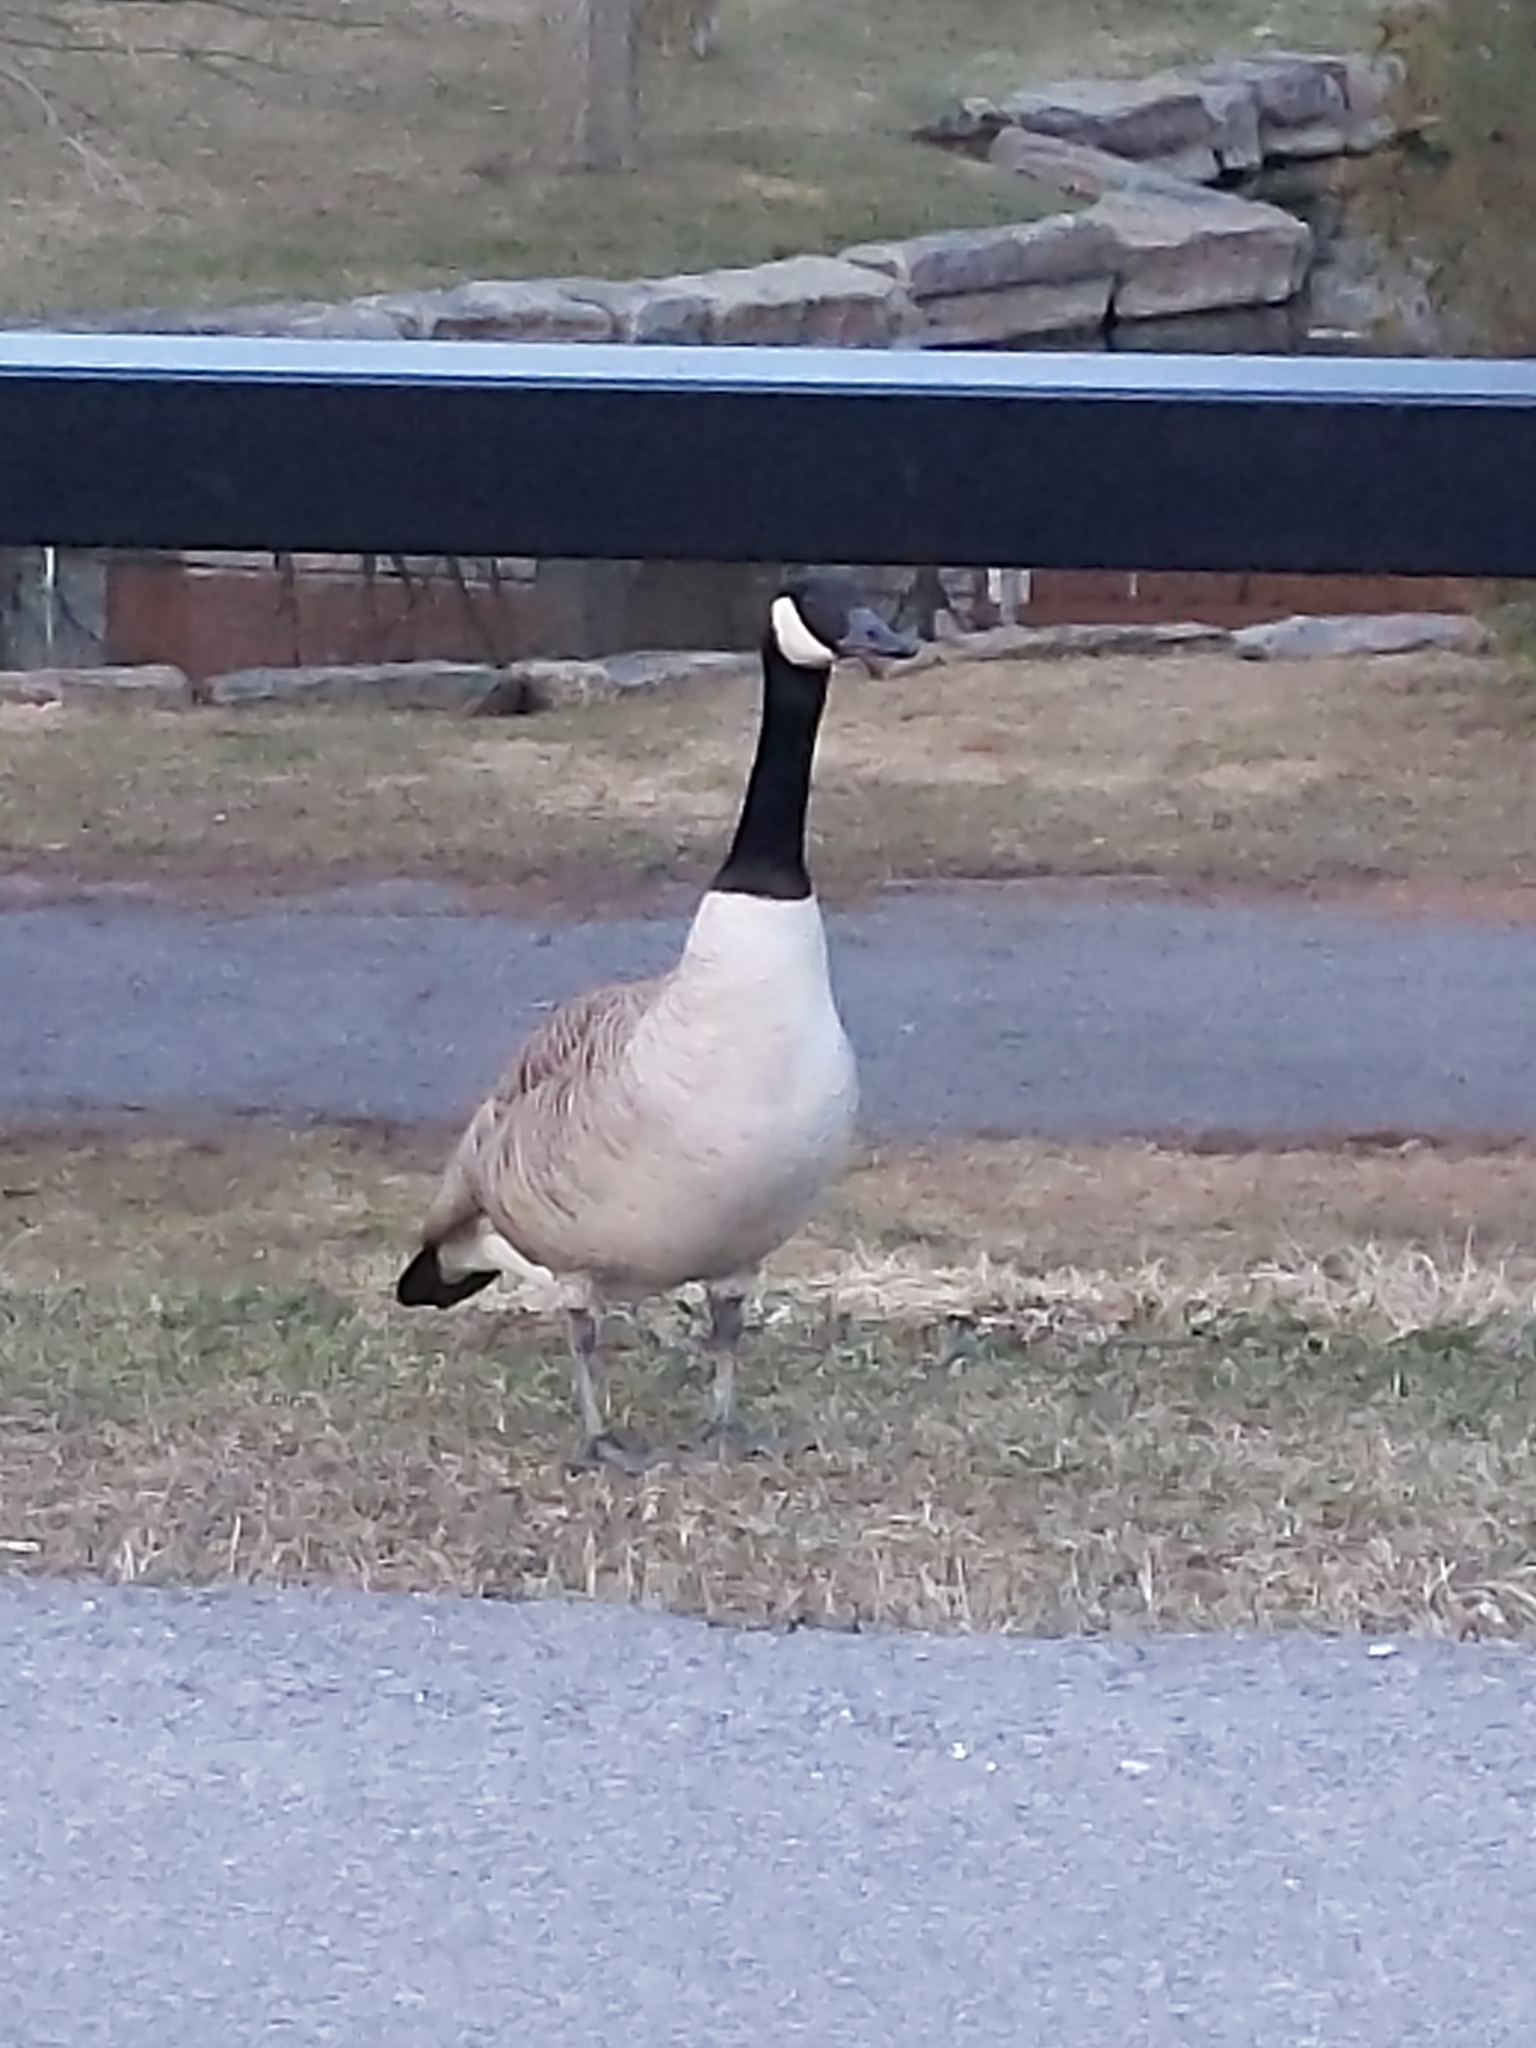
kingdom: Animalia
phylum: Chordata
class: Aves
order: Anseriformes
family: Anatidae
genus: Branta
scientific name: Branta canadensis
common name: Canada goose
